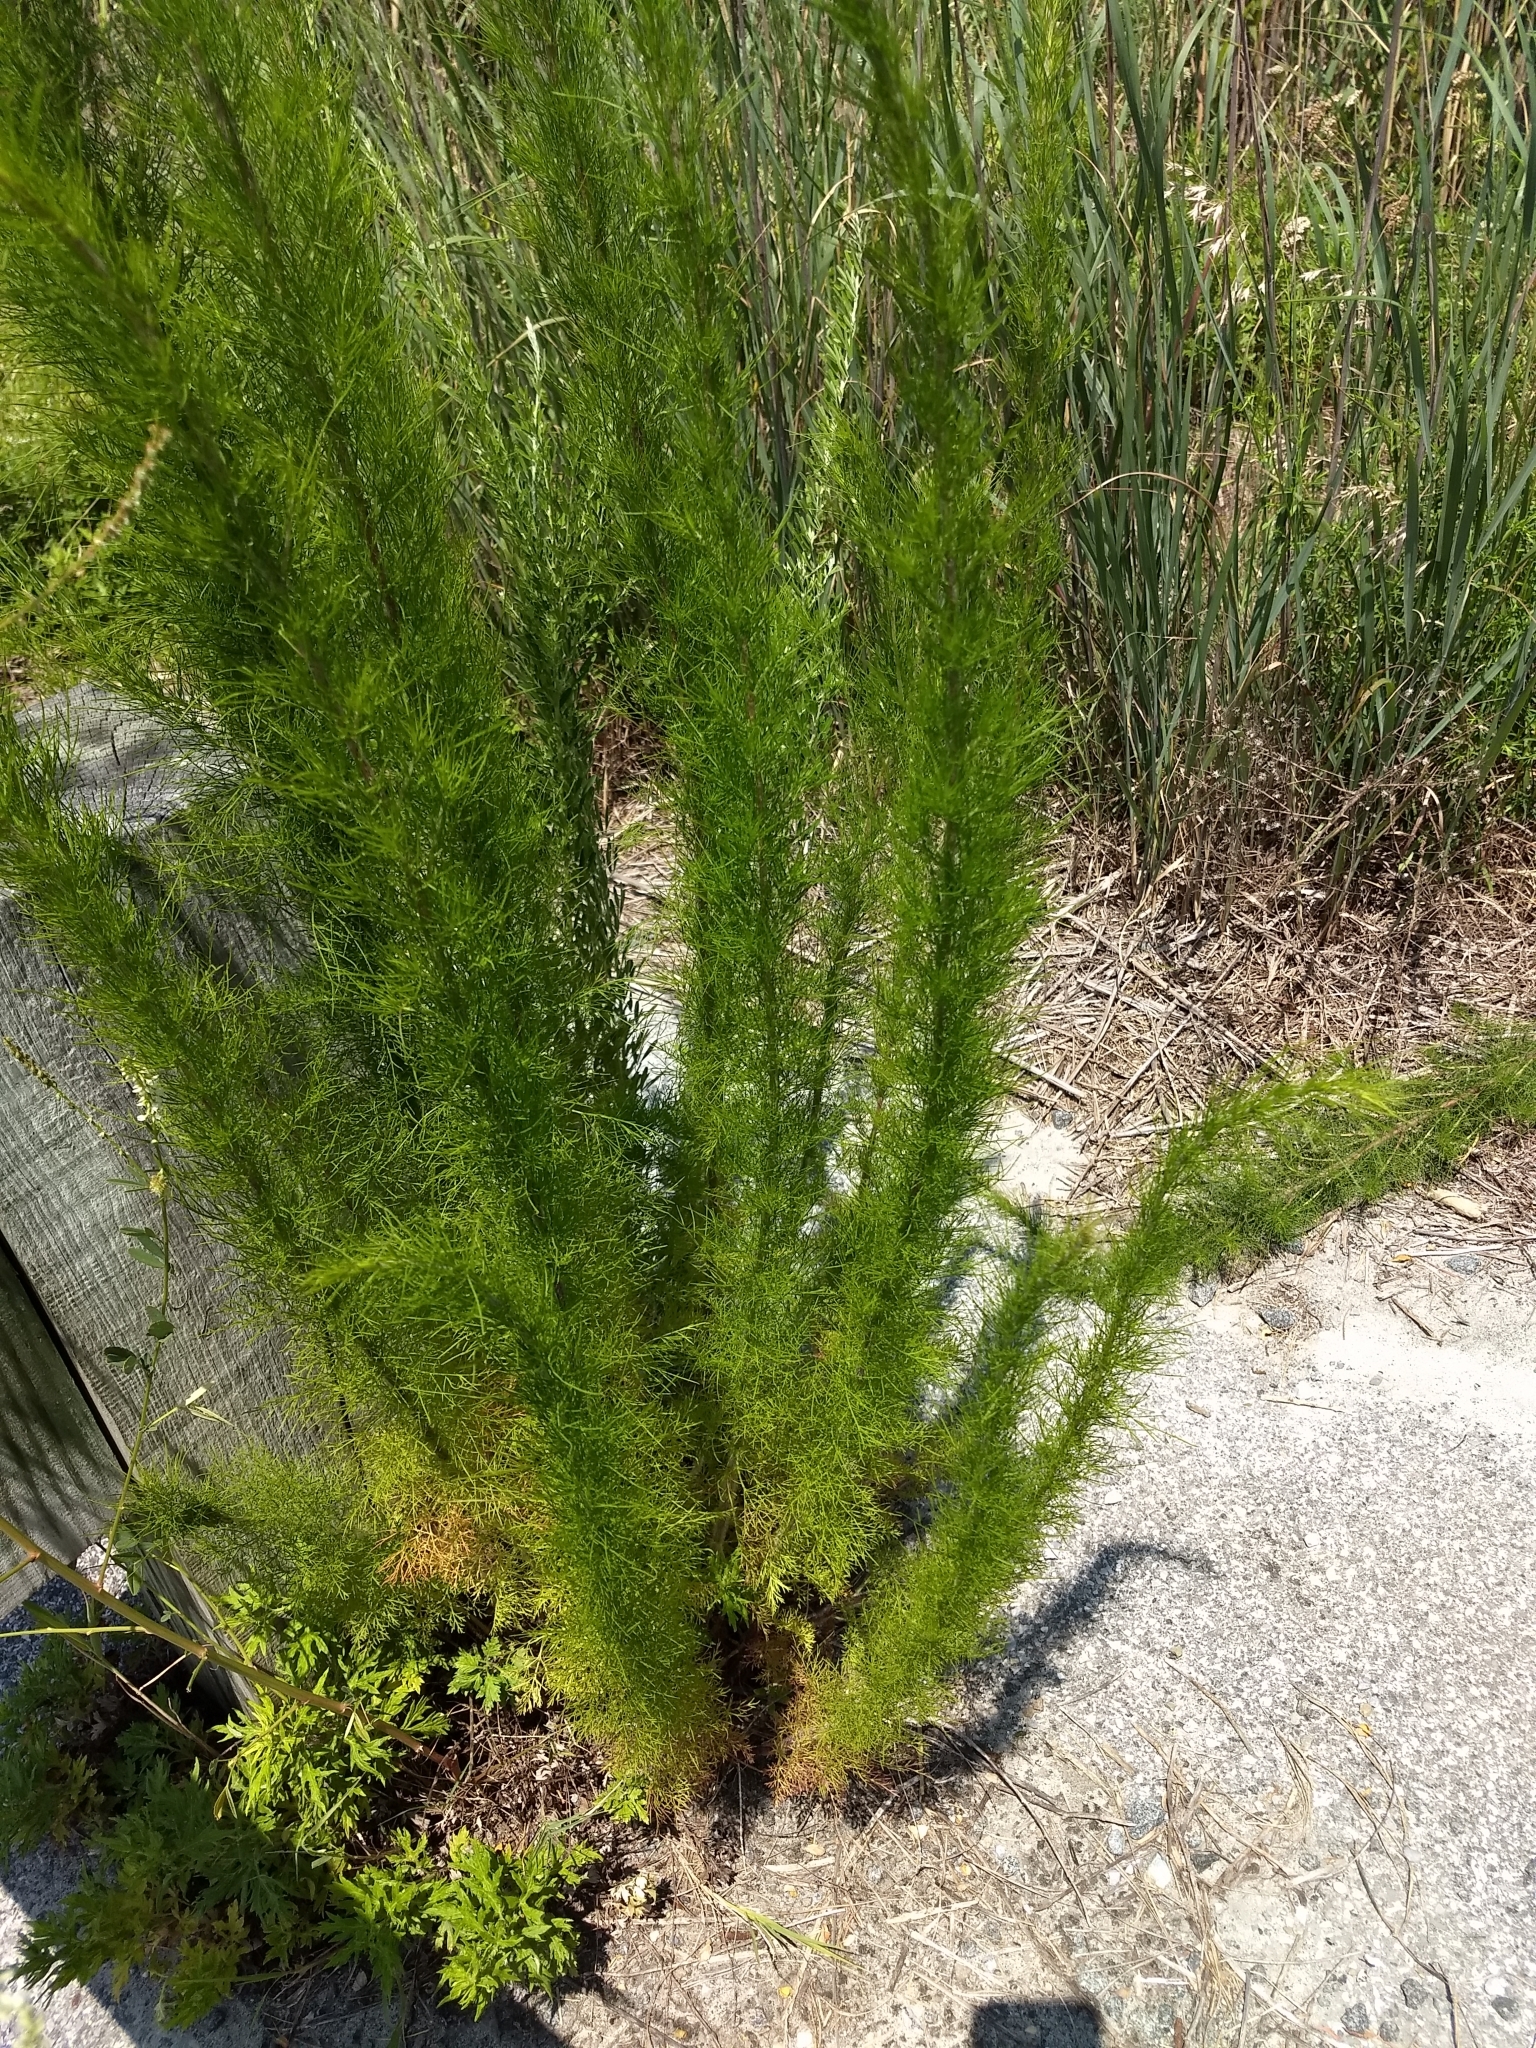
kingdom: Plantae
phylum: Tracheophyta
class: Magnoliopsida
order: Asterales
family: Asteraceae
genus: Eupatorium
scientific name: Eupatorium capillifolium
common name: Dog-fennel
